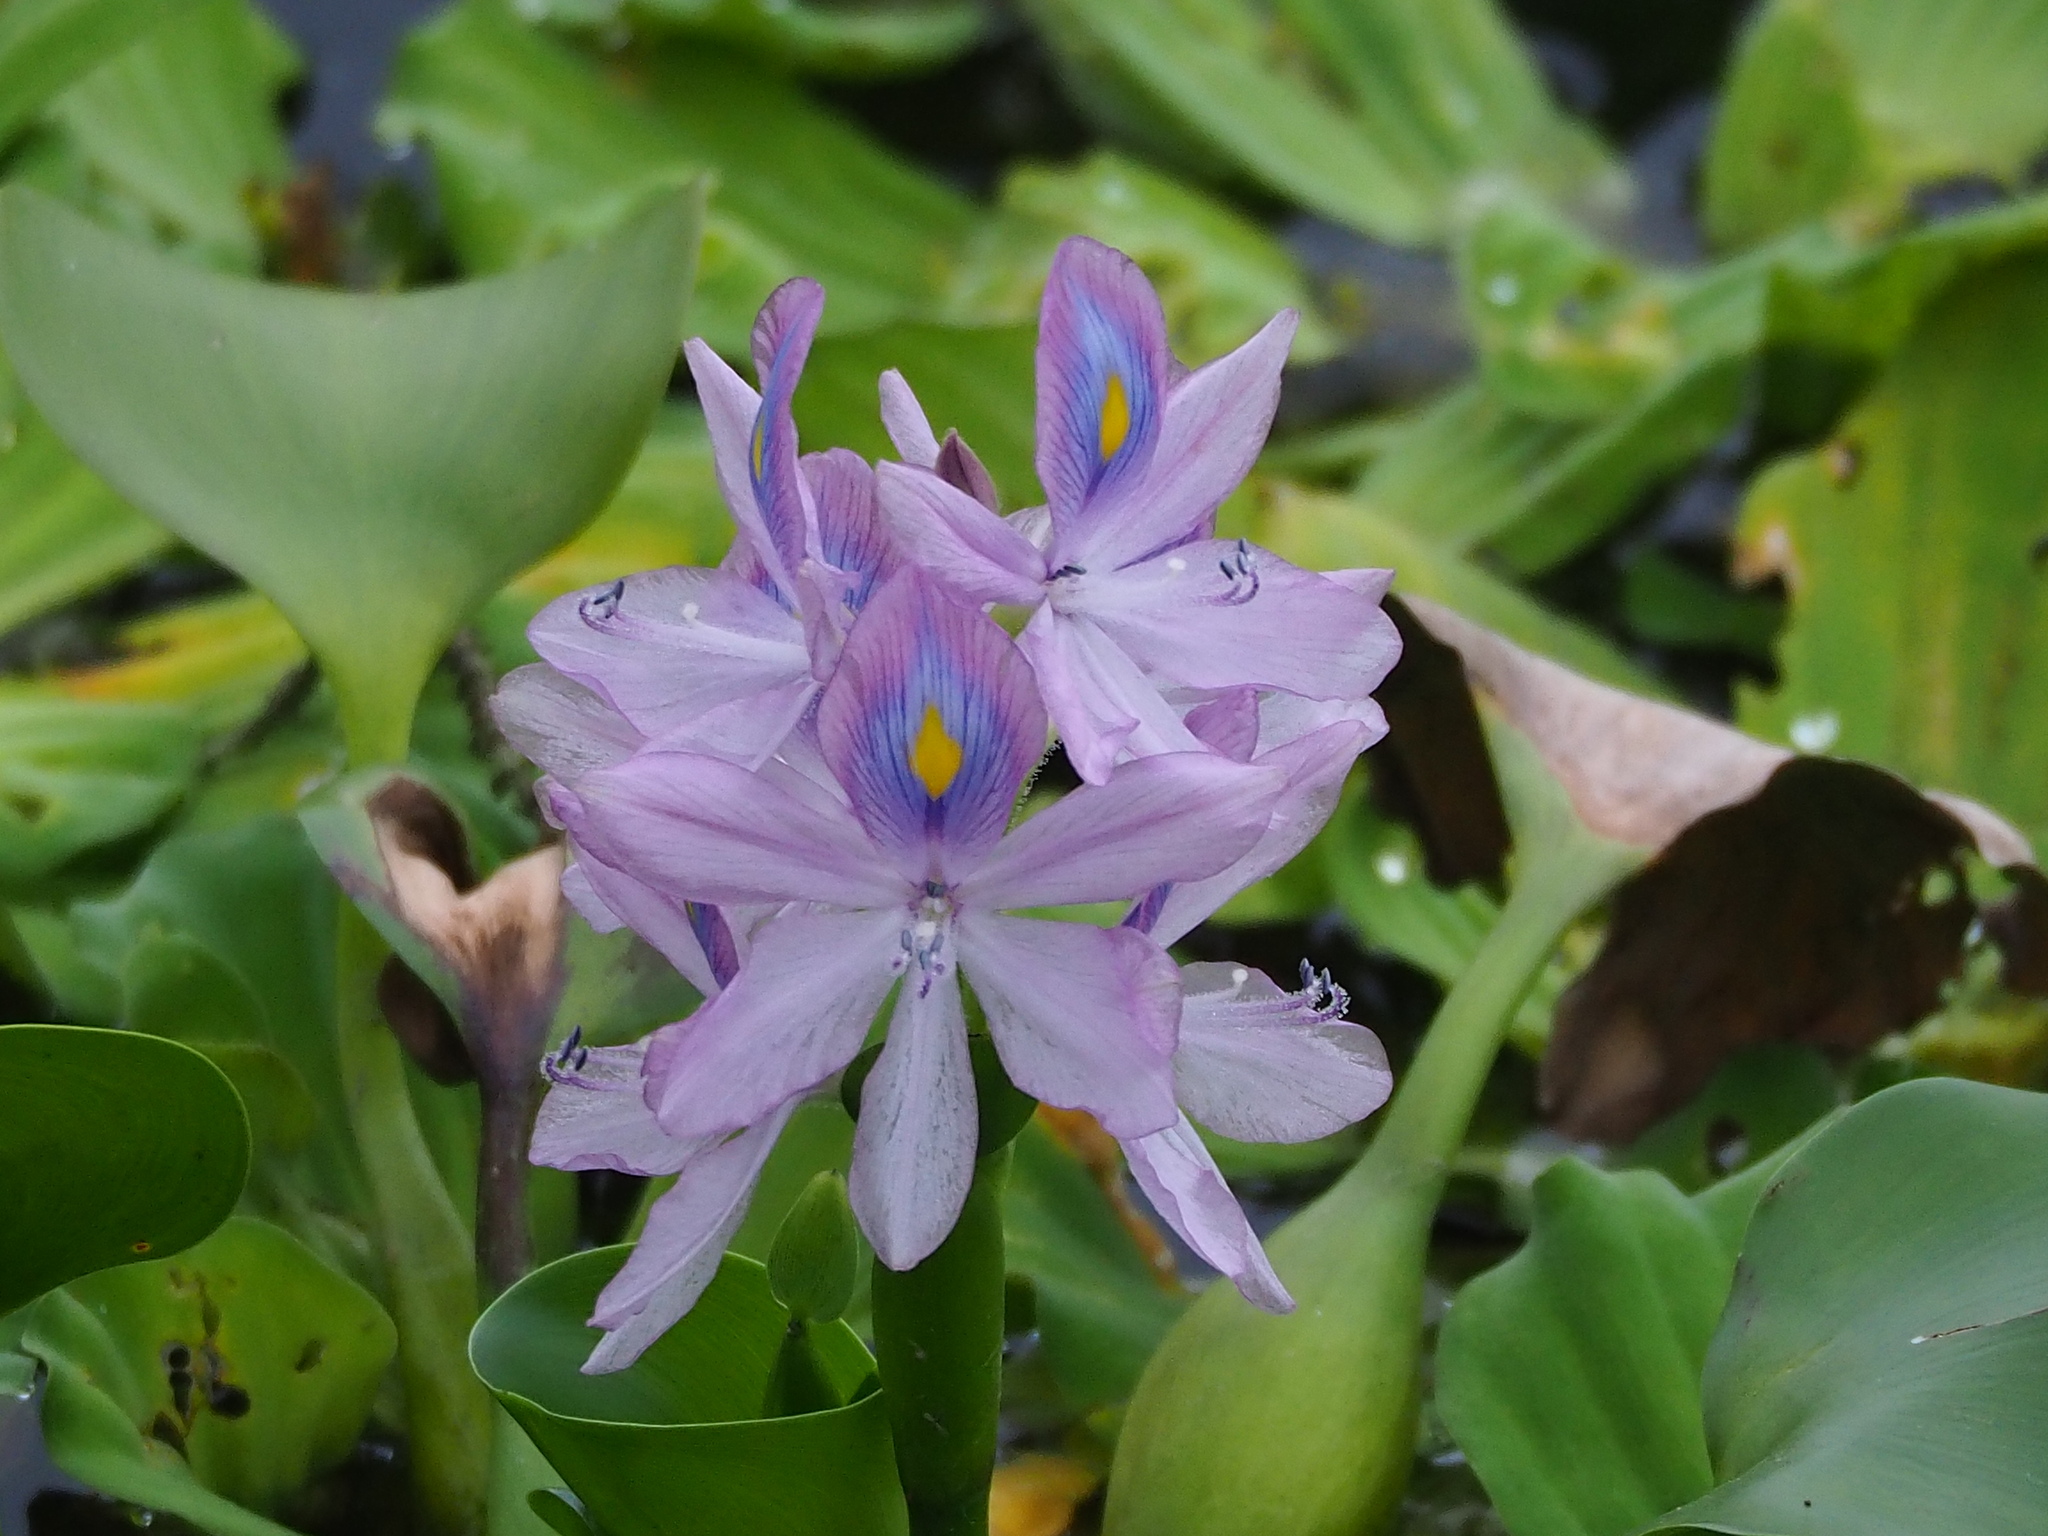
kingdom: Plantae
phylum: Tracheophyta
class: Liliopsida
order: Commelinales
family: Pontederiaceae
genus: Pontederia
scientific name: Pontederia crassipes
